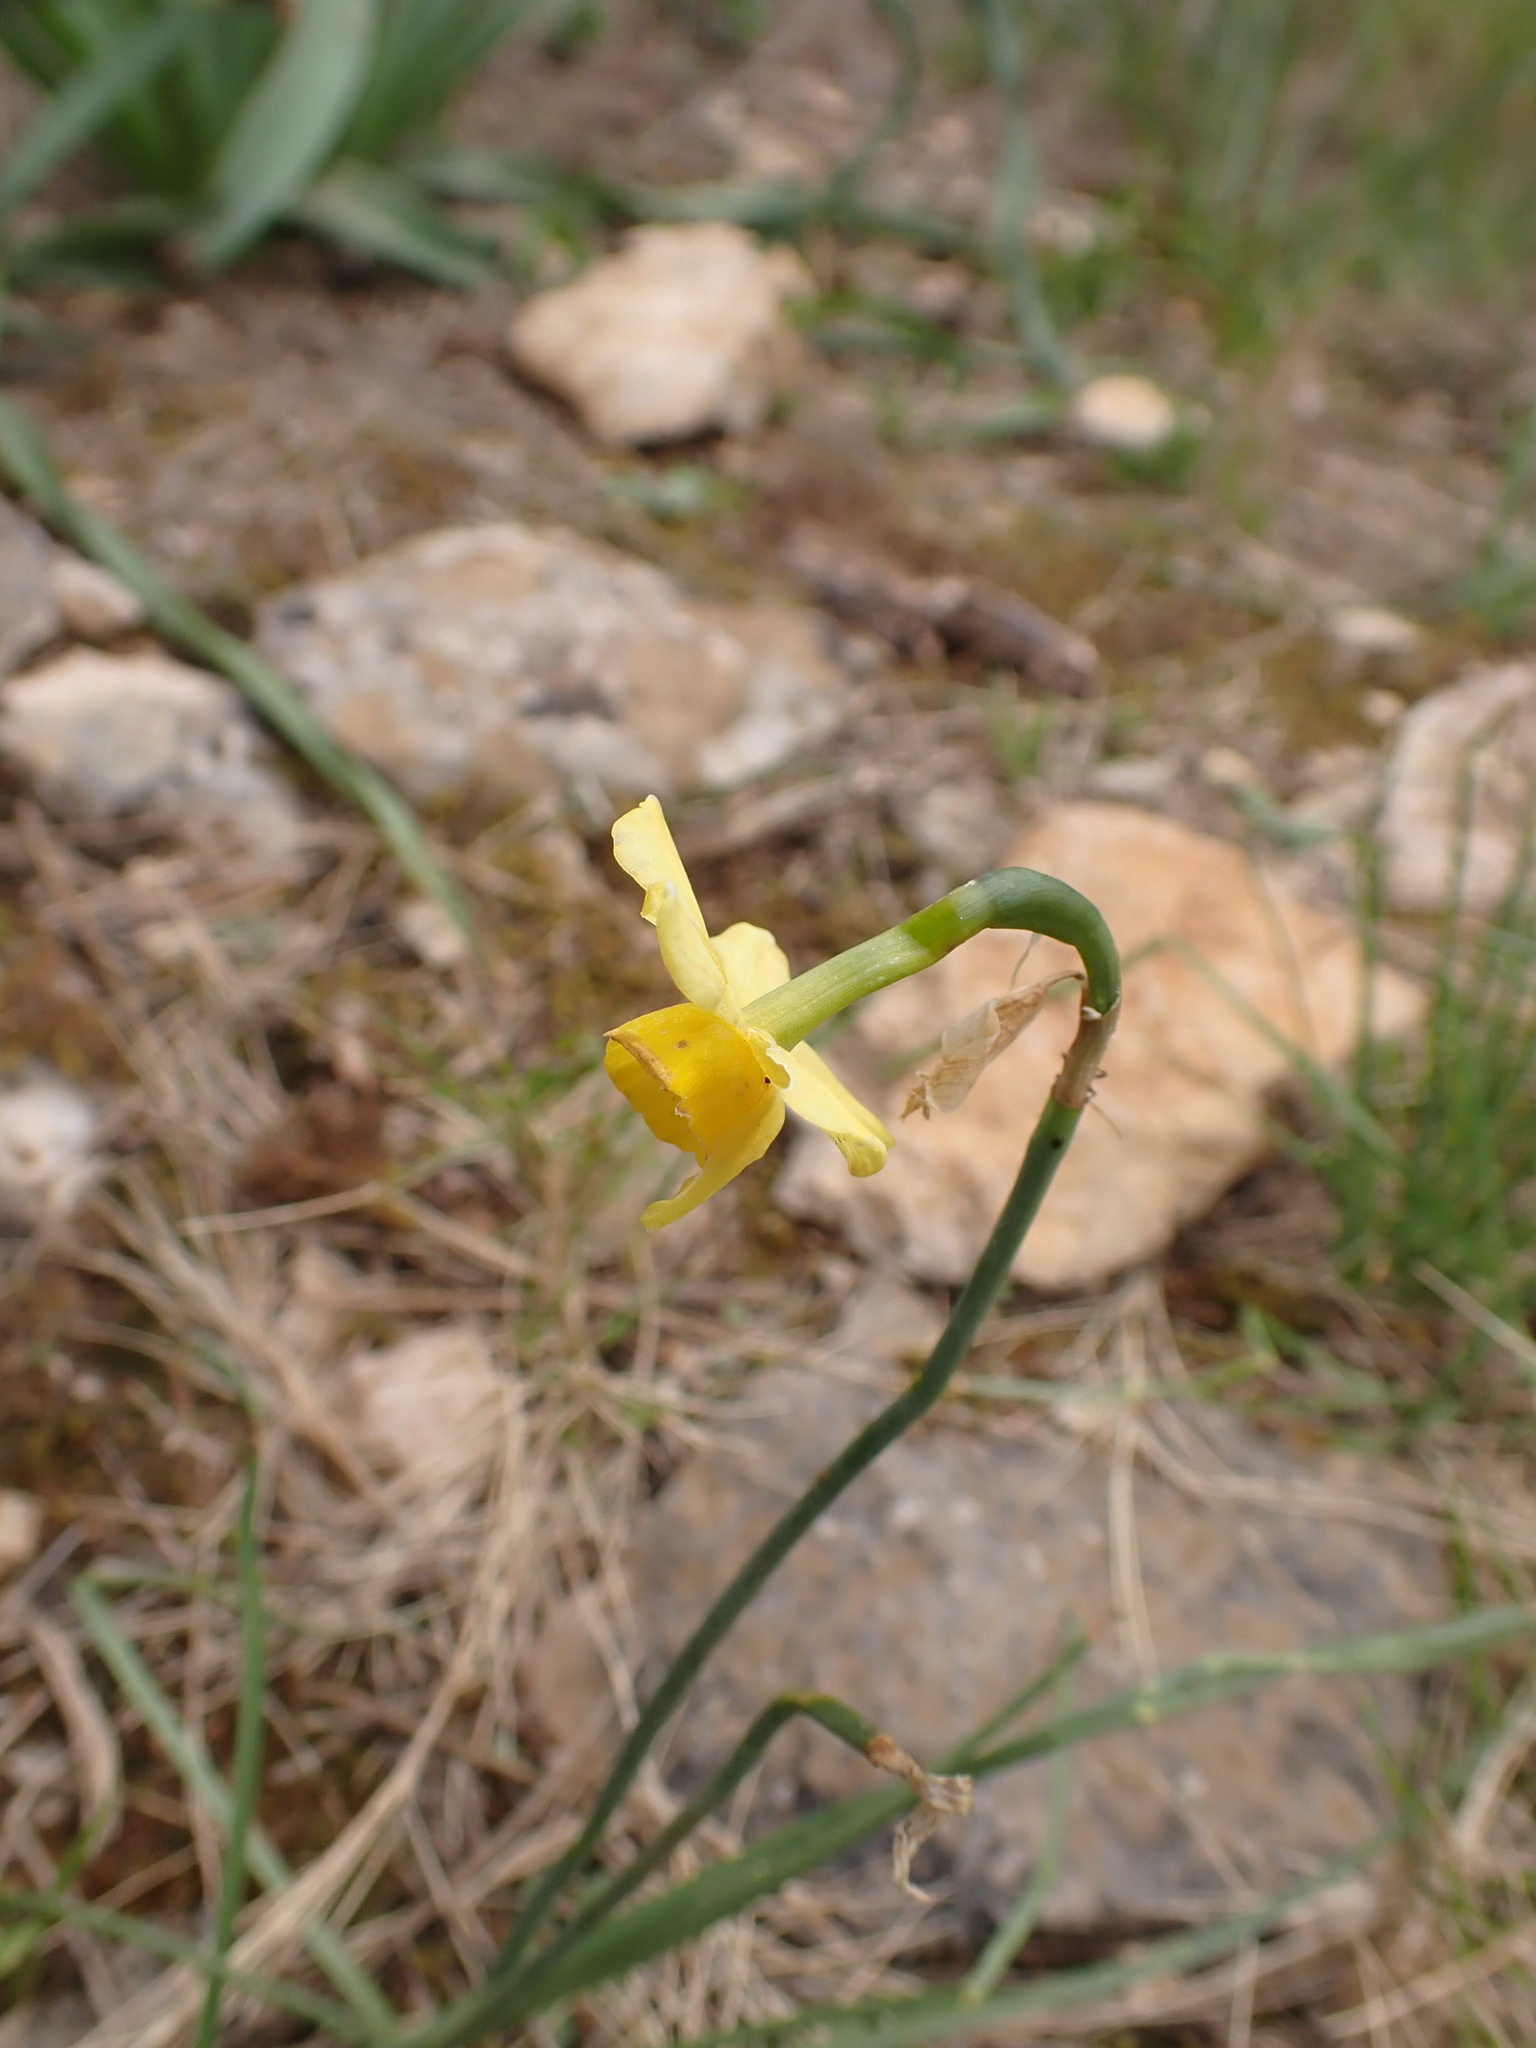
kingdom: Plantae
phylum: Tracheophyta
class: Liliopsida
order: Asparagales
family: Amaryllidaceae
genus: Narcissus
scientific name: Narcissus assoanus
